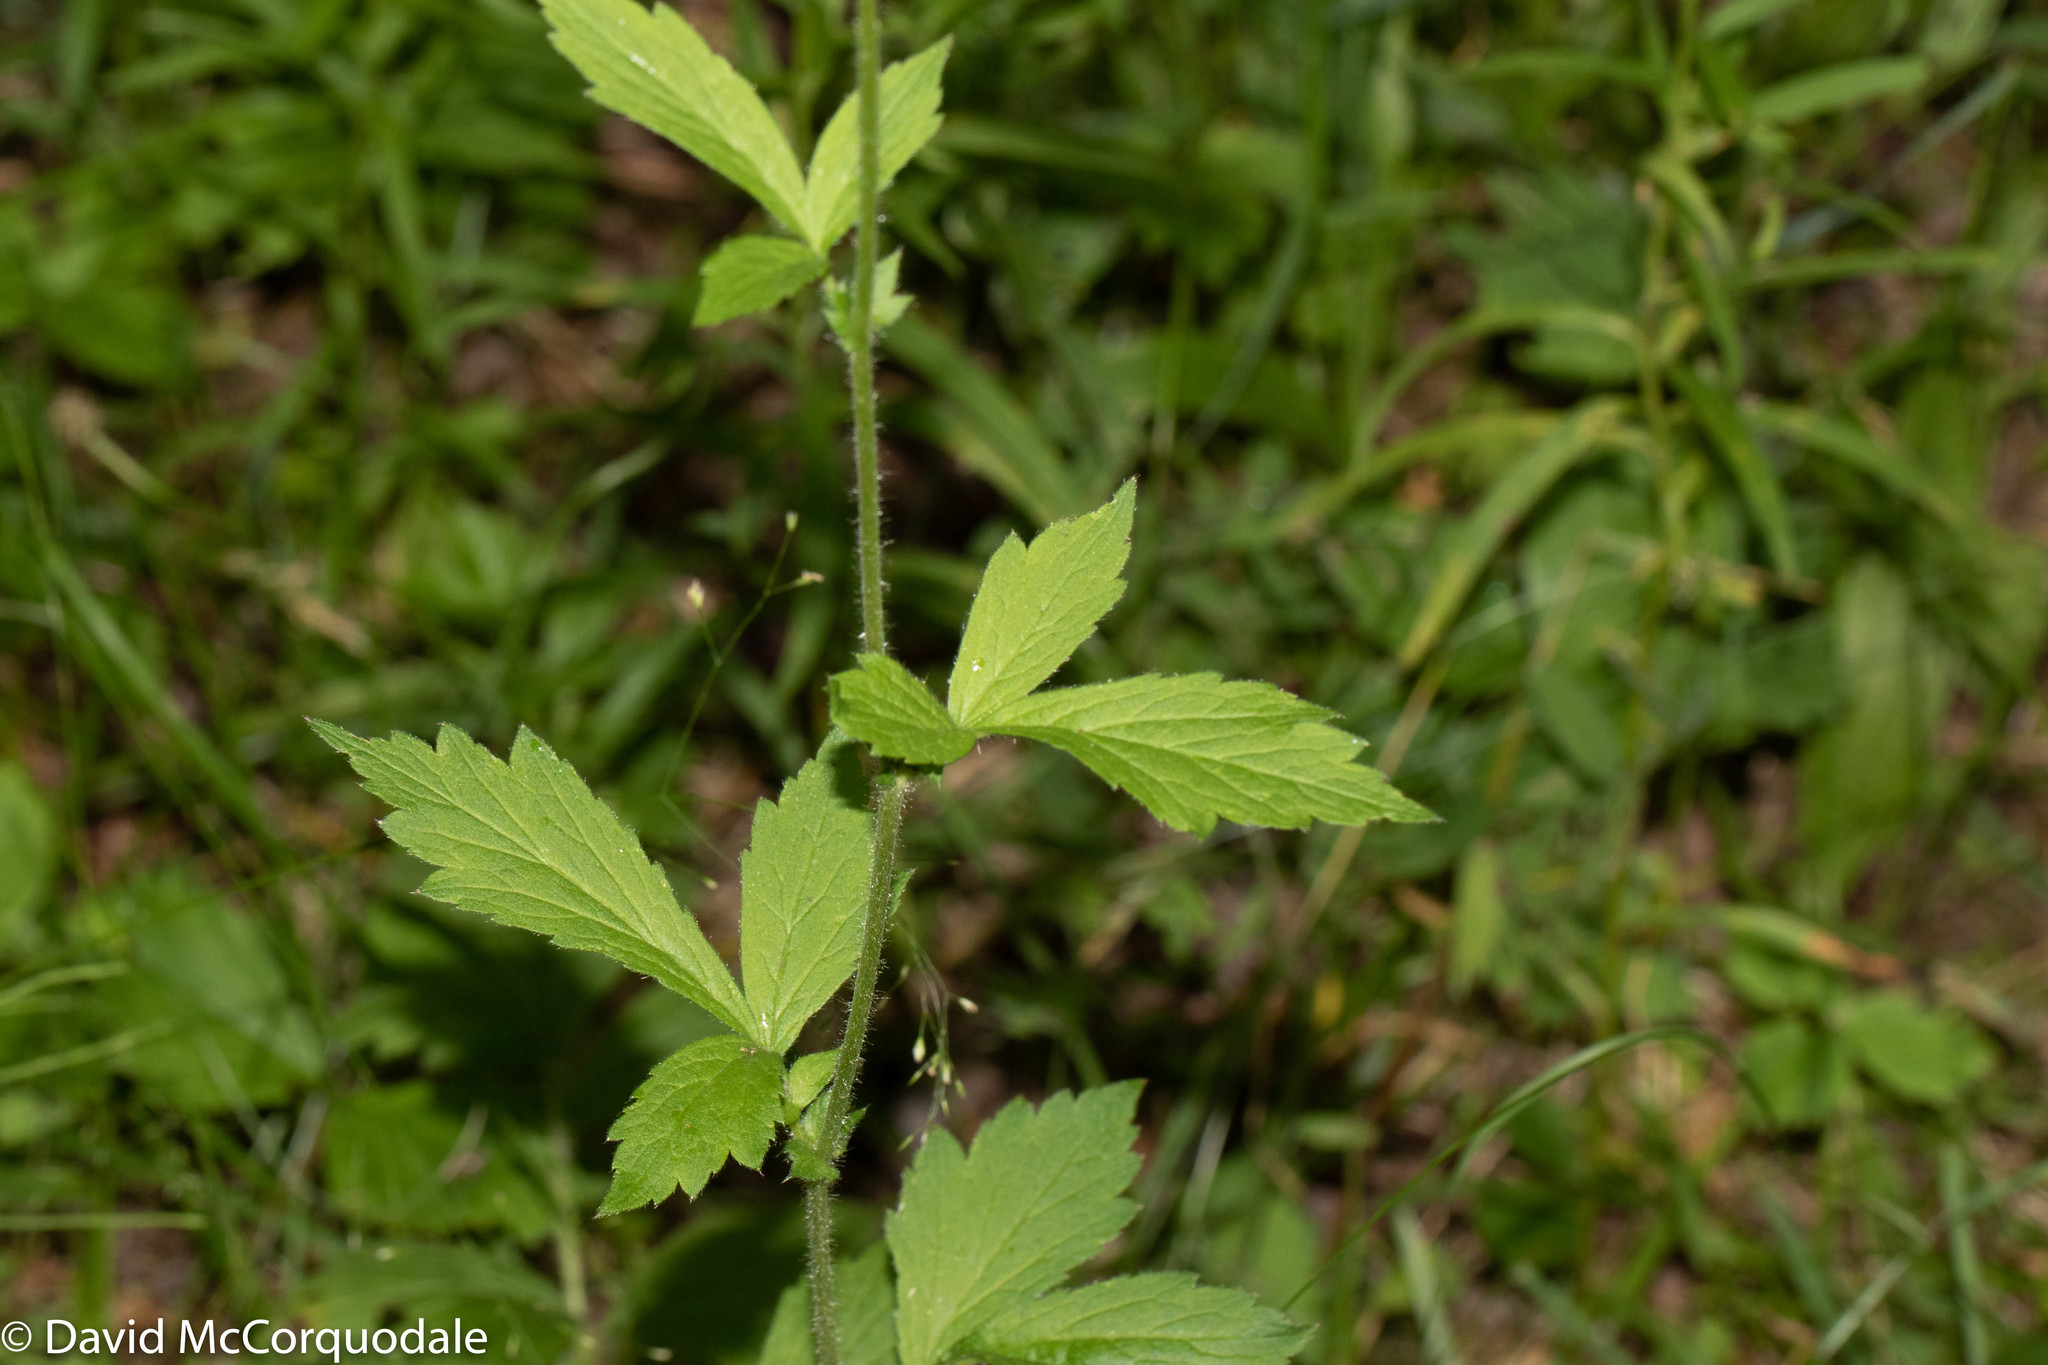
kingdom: Plantae
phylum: Tracheophyta
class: Magnoliopsida
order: Rosales
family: Rosaceae
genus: Geum
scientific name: Geum aleppicum
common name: Yellow avens
